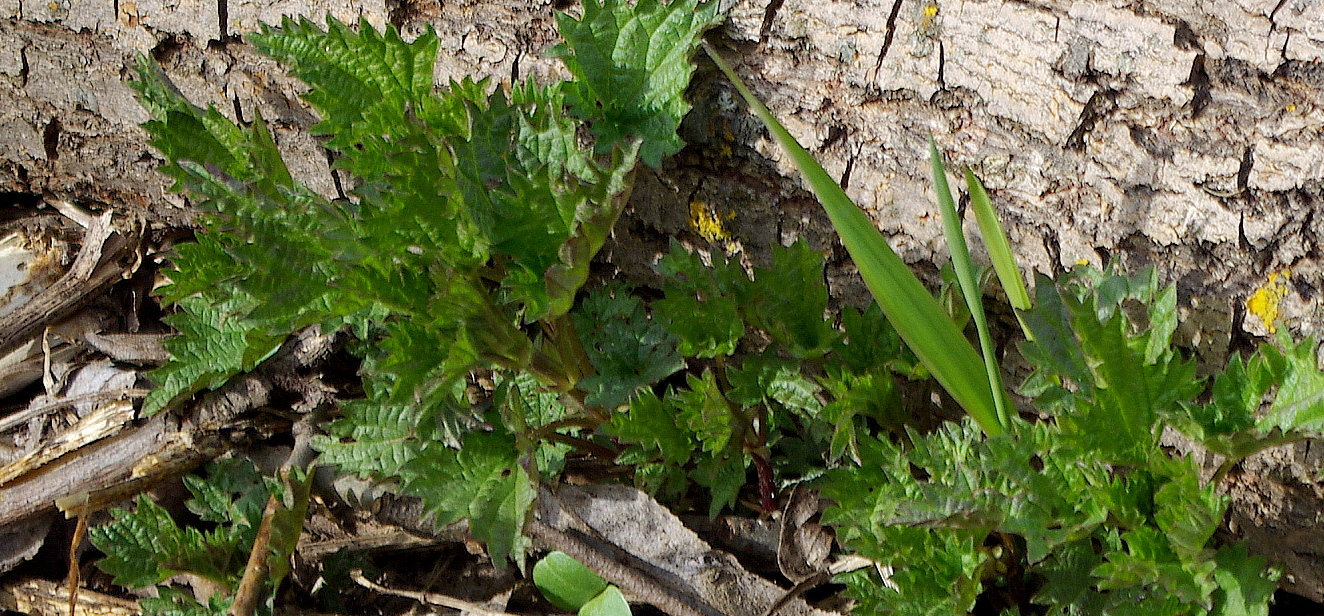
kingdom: Plantae
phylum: Tracheophyta
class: Magnoliopsida
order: Rosales
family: Urticaceae
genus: Urtica
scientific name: Urtica dioica
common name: Common nettle
